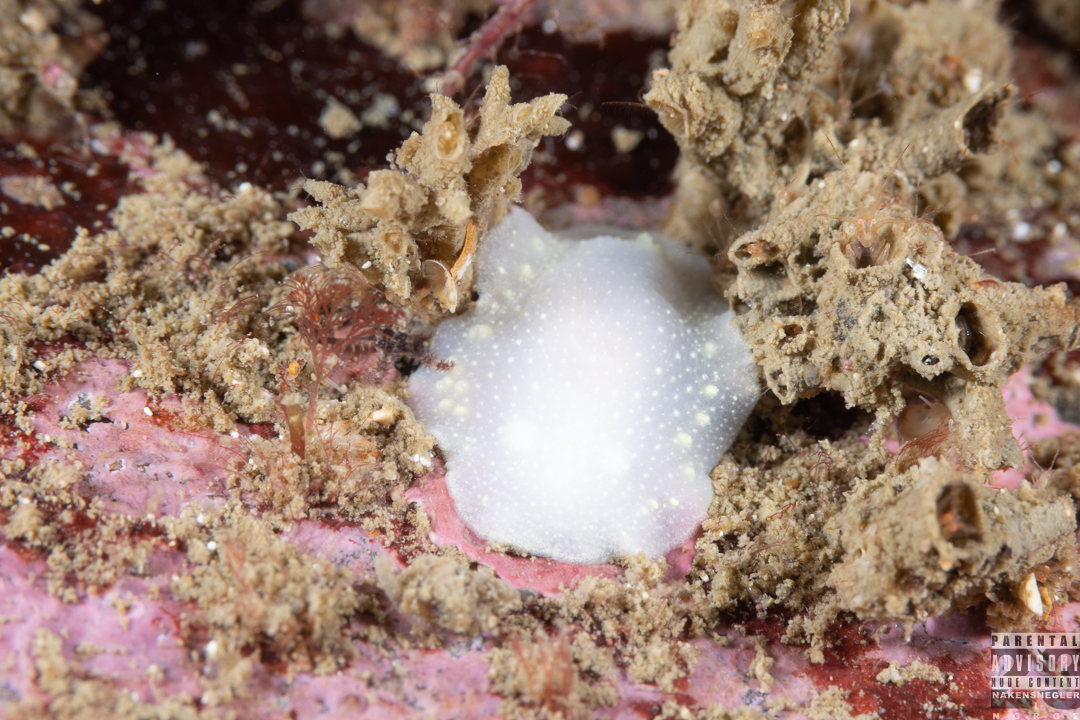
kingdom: Animalia
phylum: Mollusca
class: Gastropoda
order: Nudibranchia
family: Cadlinidae
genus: Cadlina
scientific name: Cadlina laevis
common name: White atlantic cadlina
